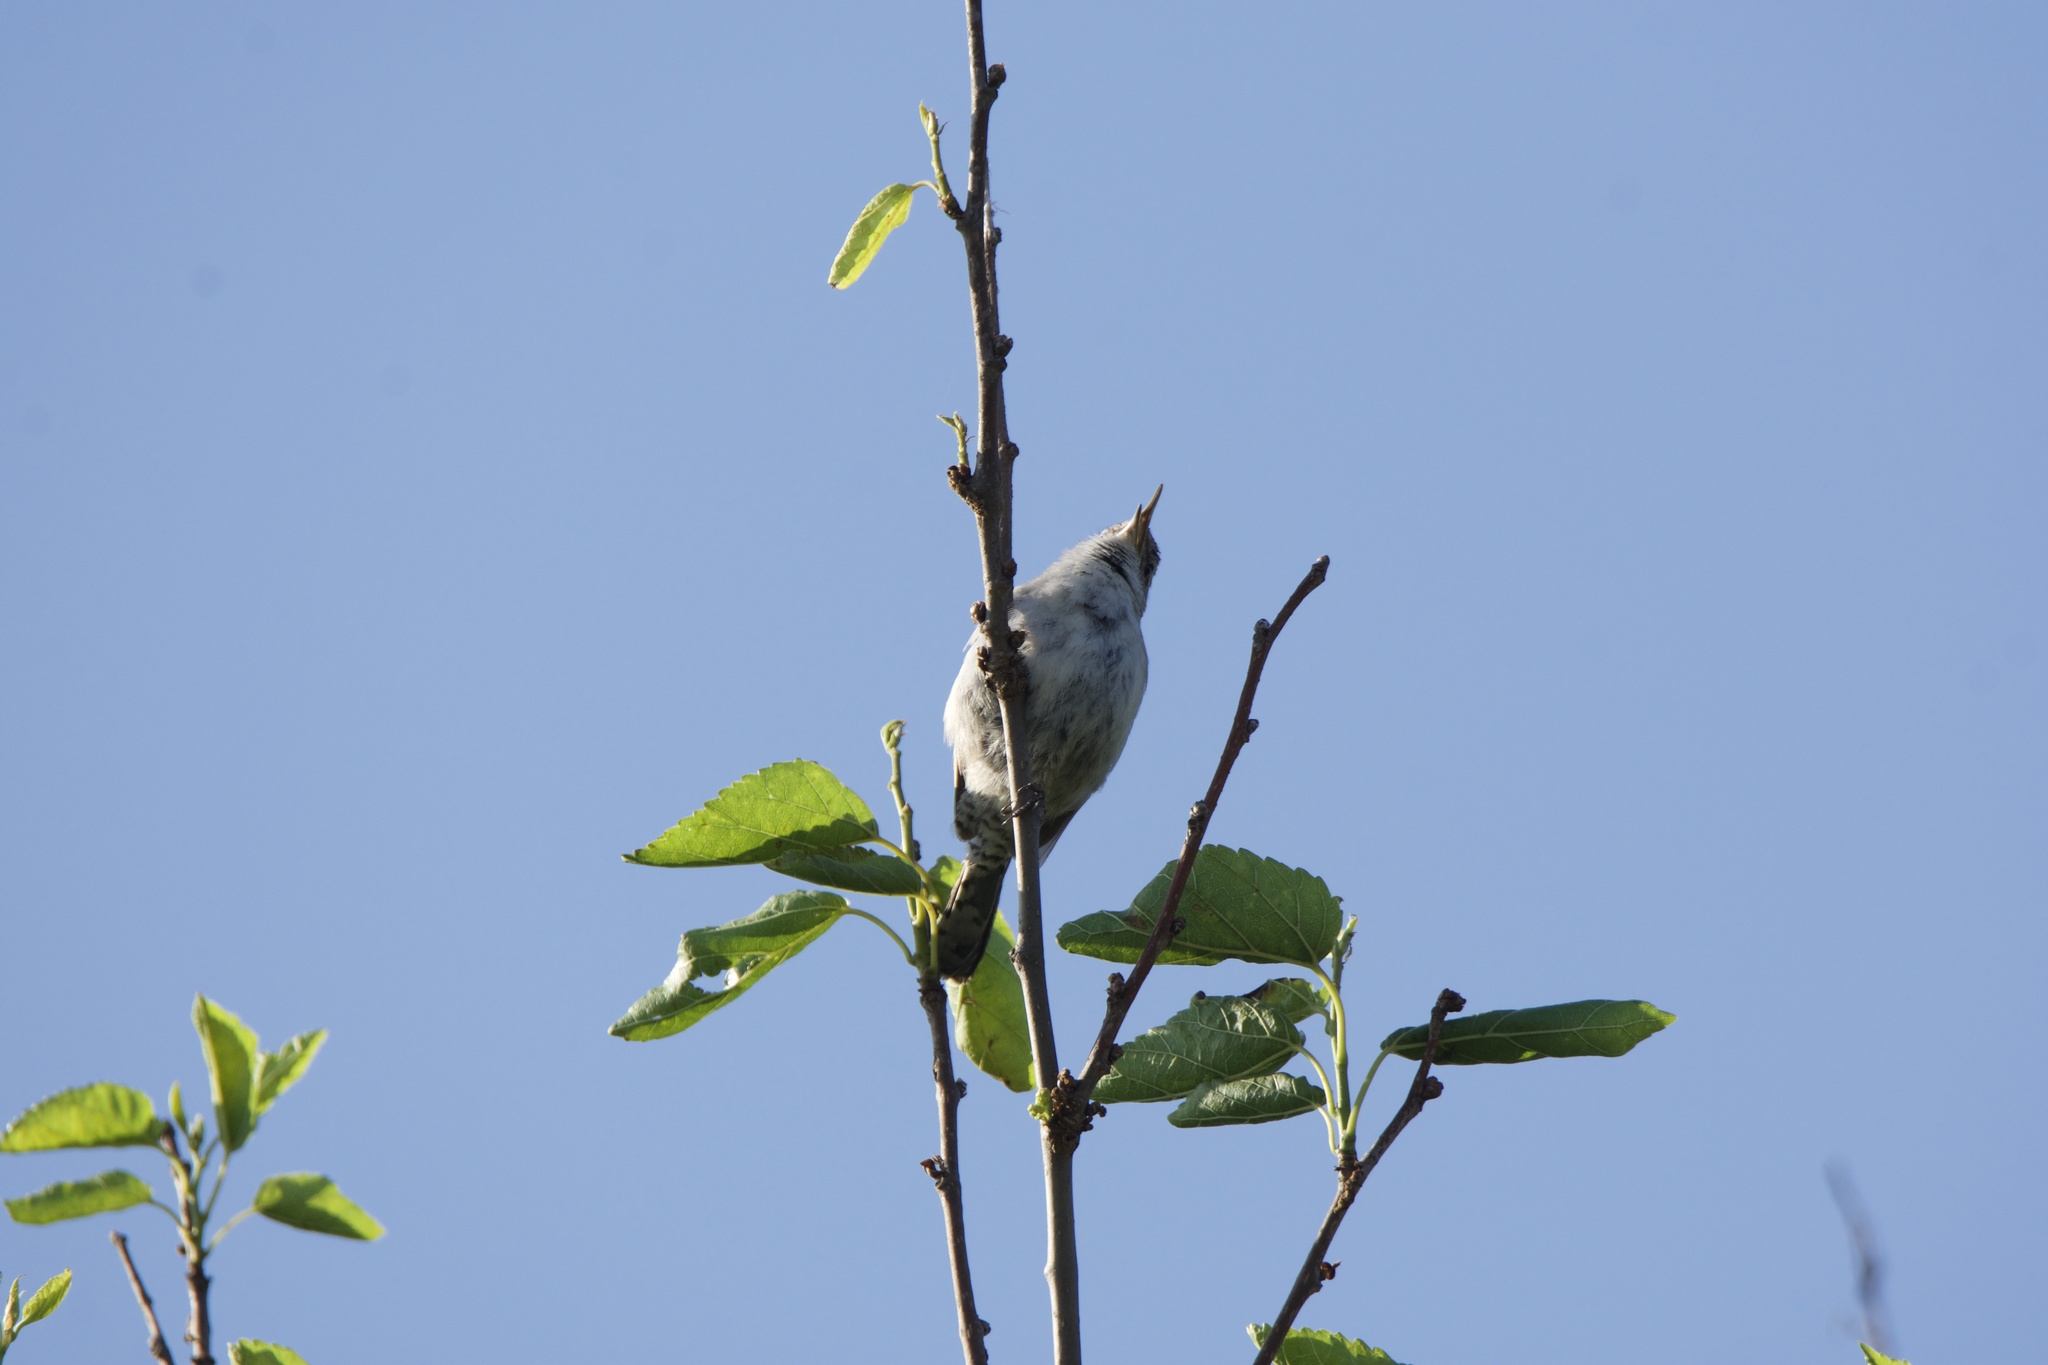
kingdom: Animalia
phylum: Chordata
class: Aves
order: Passeriformes
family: Troglodytidae
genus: Thryomanes
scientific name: Thryomanes bewickii
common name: Bewick's wren
